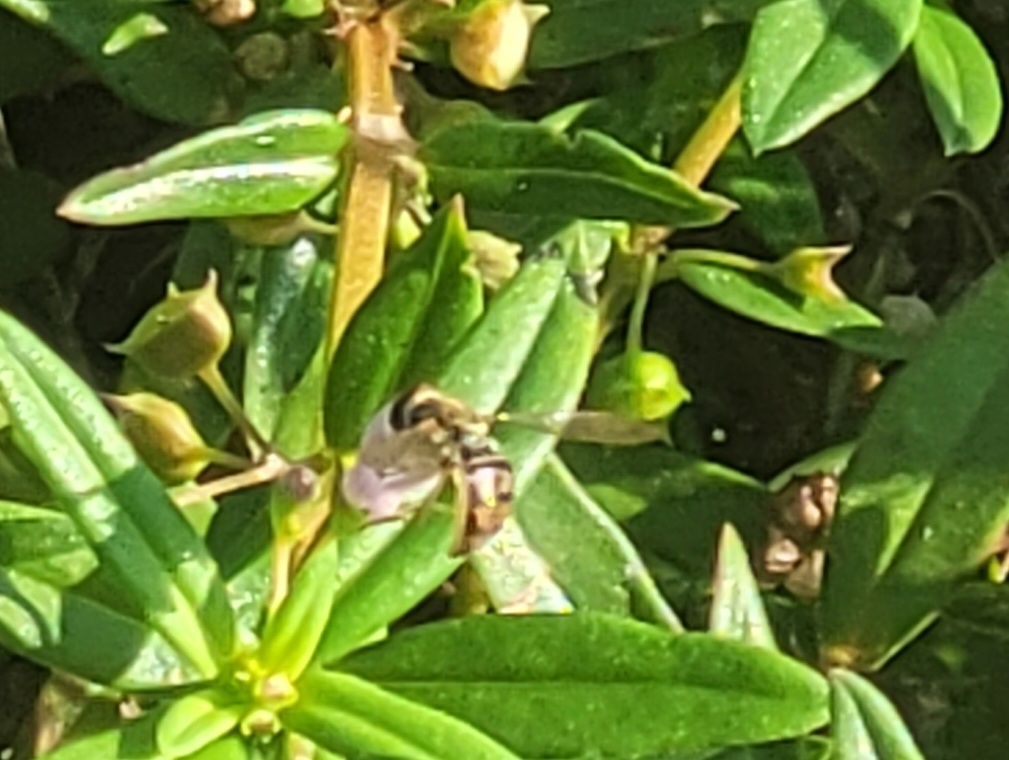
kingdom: Animalia
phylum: Arthropoda
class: Insecta
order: Diptera
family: Syrphidae
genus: Toxomerus
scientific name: Toxomerus marginatus
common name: Syrphid fly
